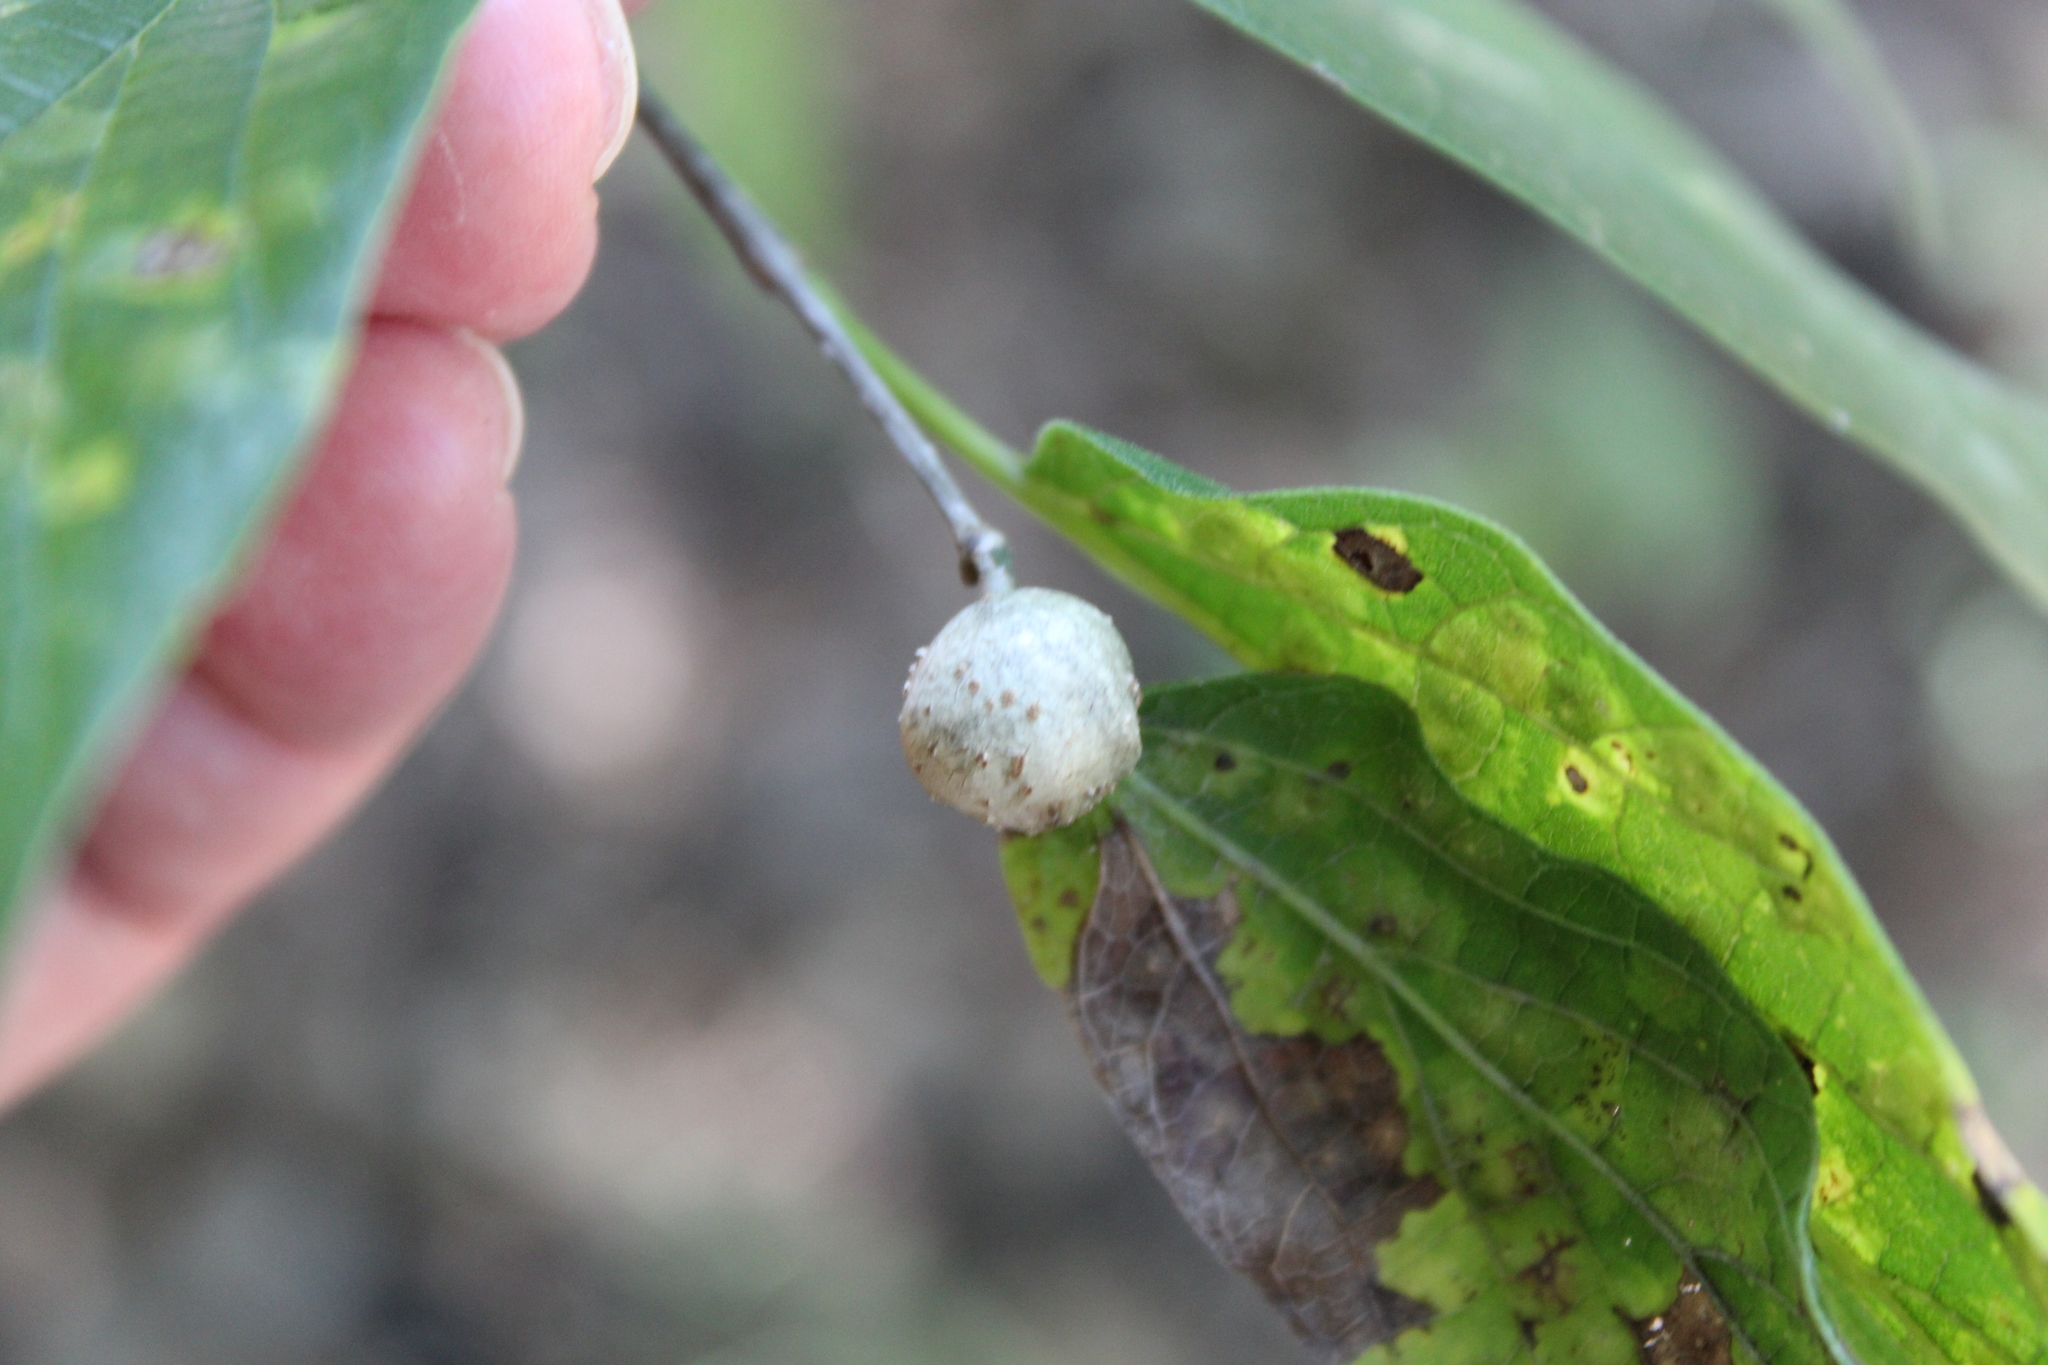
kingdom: Animalia
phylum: Arthropoda
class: Insecta
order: Hemiptera
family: Aphalaridae
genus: Pachypsylla
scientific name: Pachypsylla venusta
